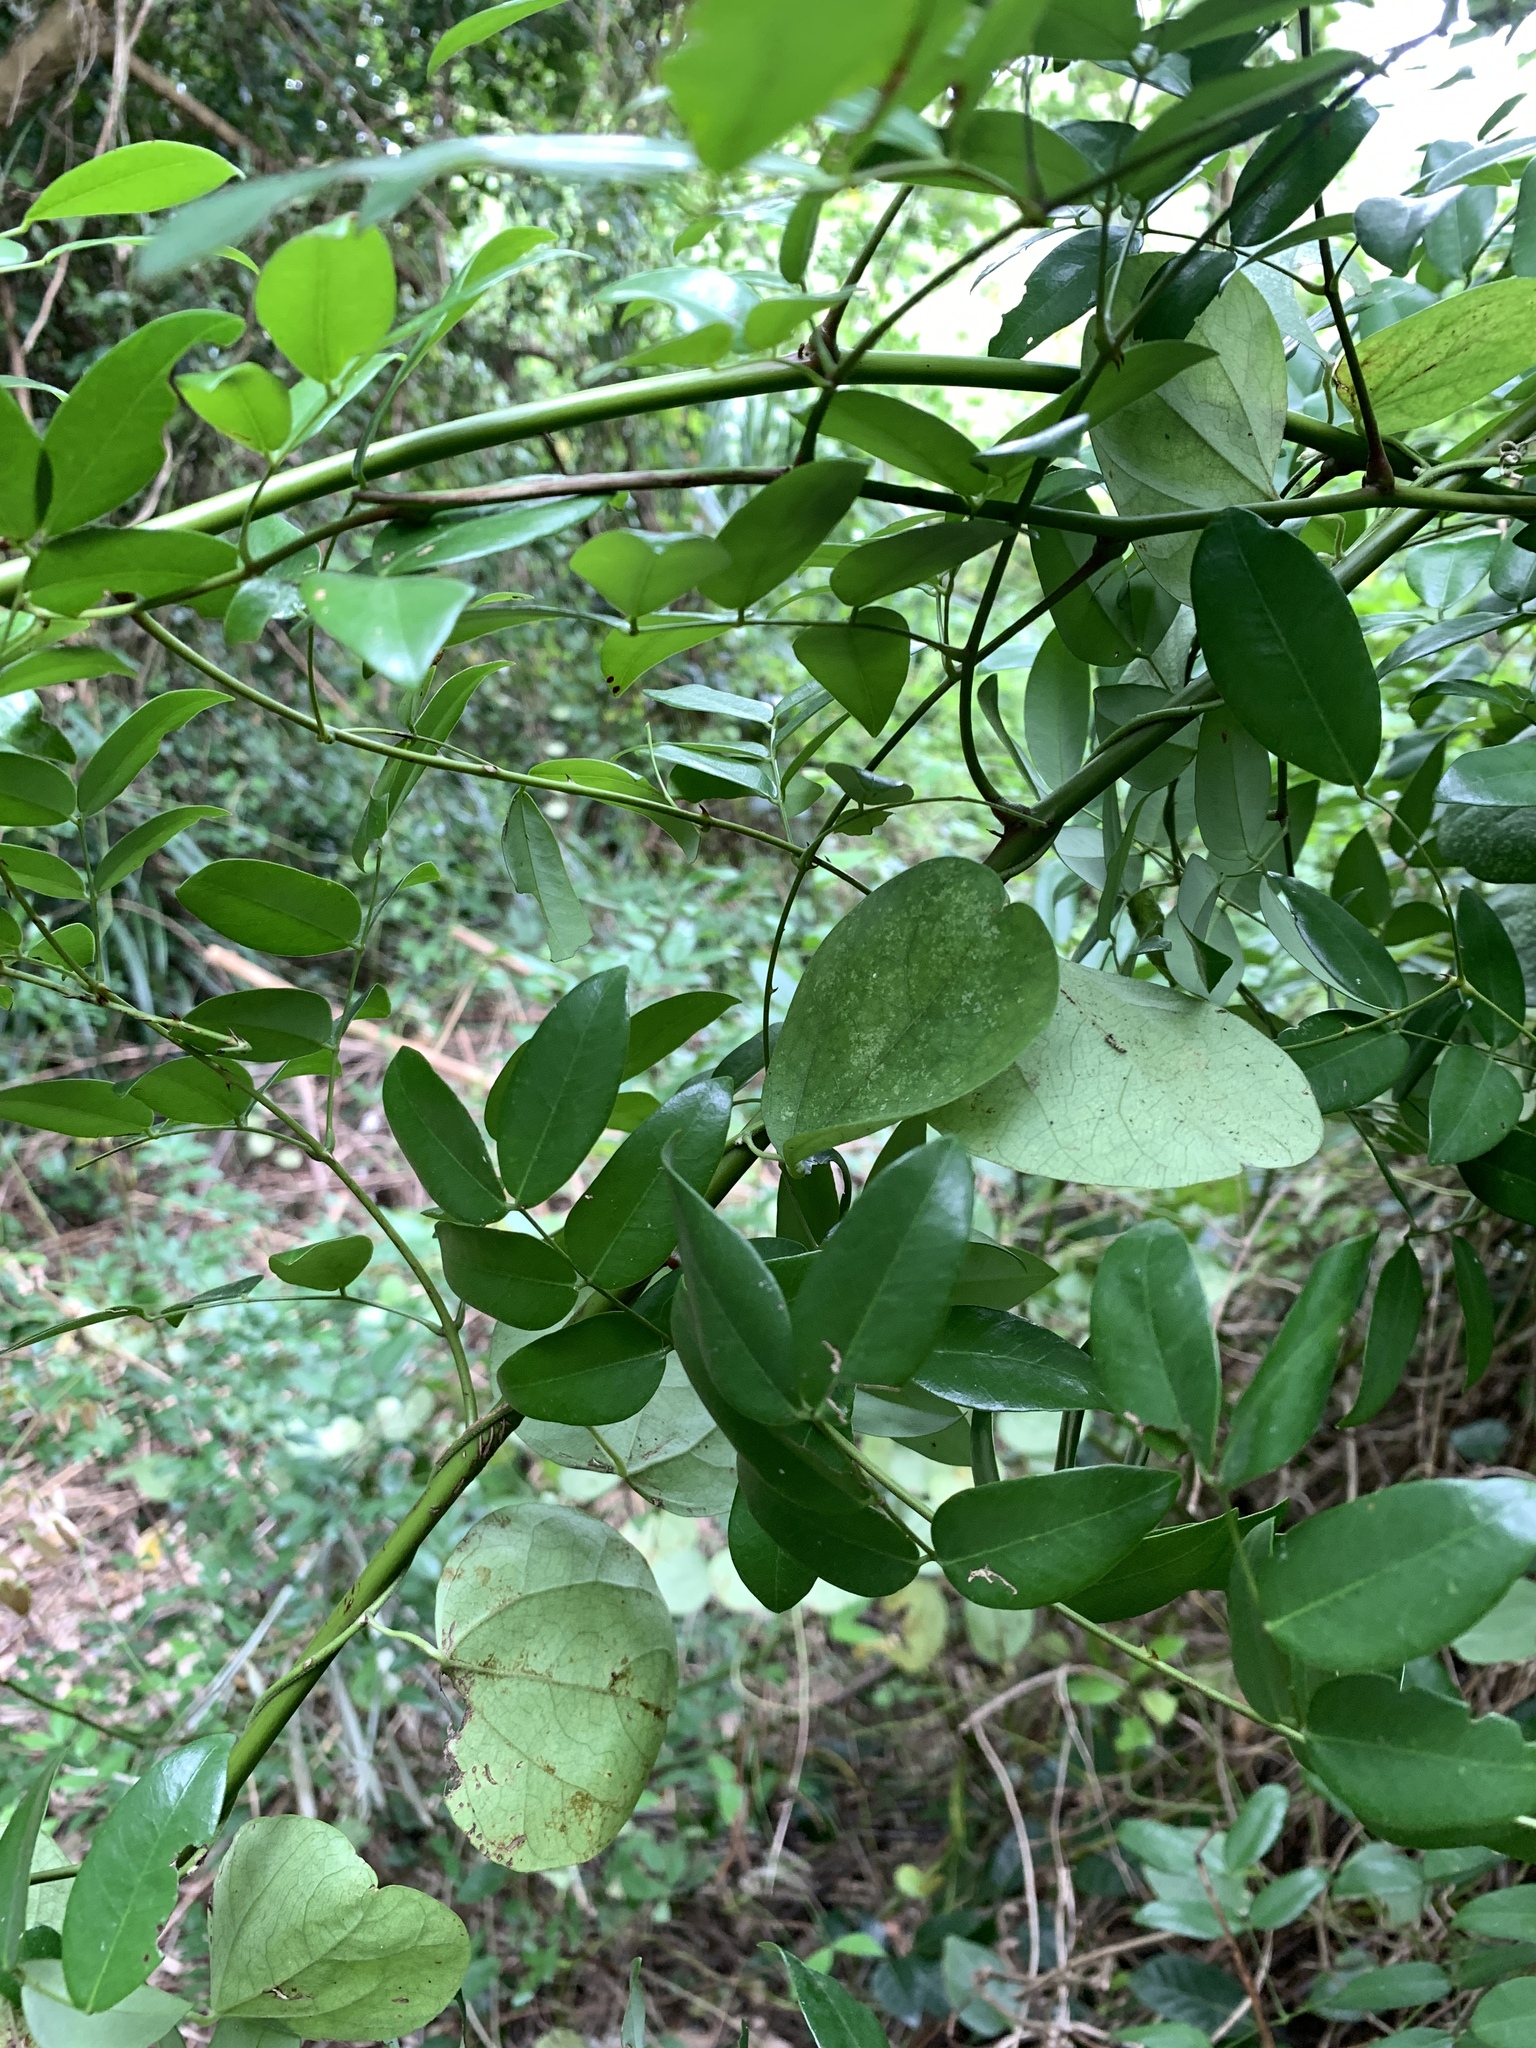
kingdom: Plantae
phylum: Tracheophyta
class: Magnoliopsida
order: Fabales
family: Fabaceae
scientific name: Fabaceae
